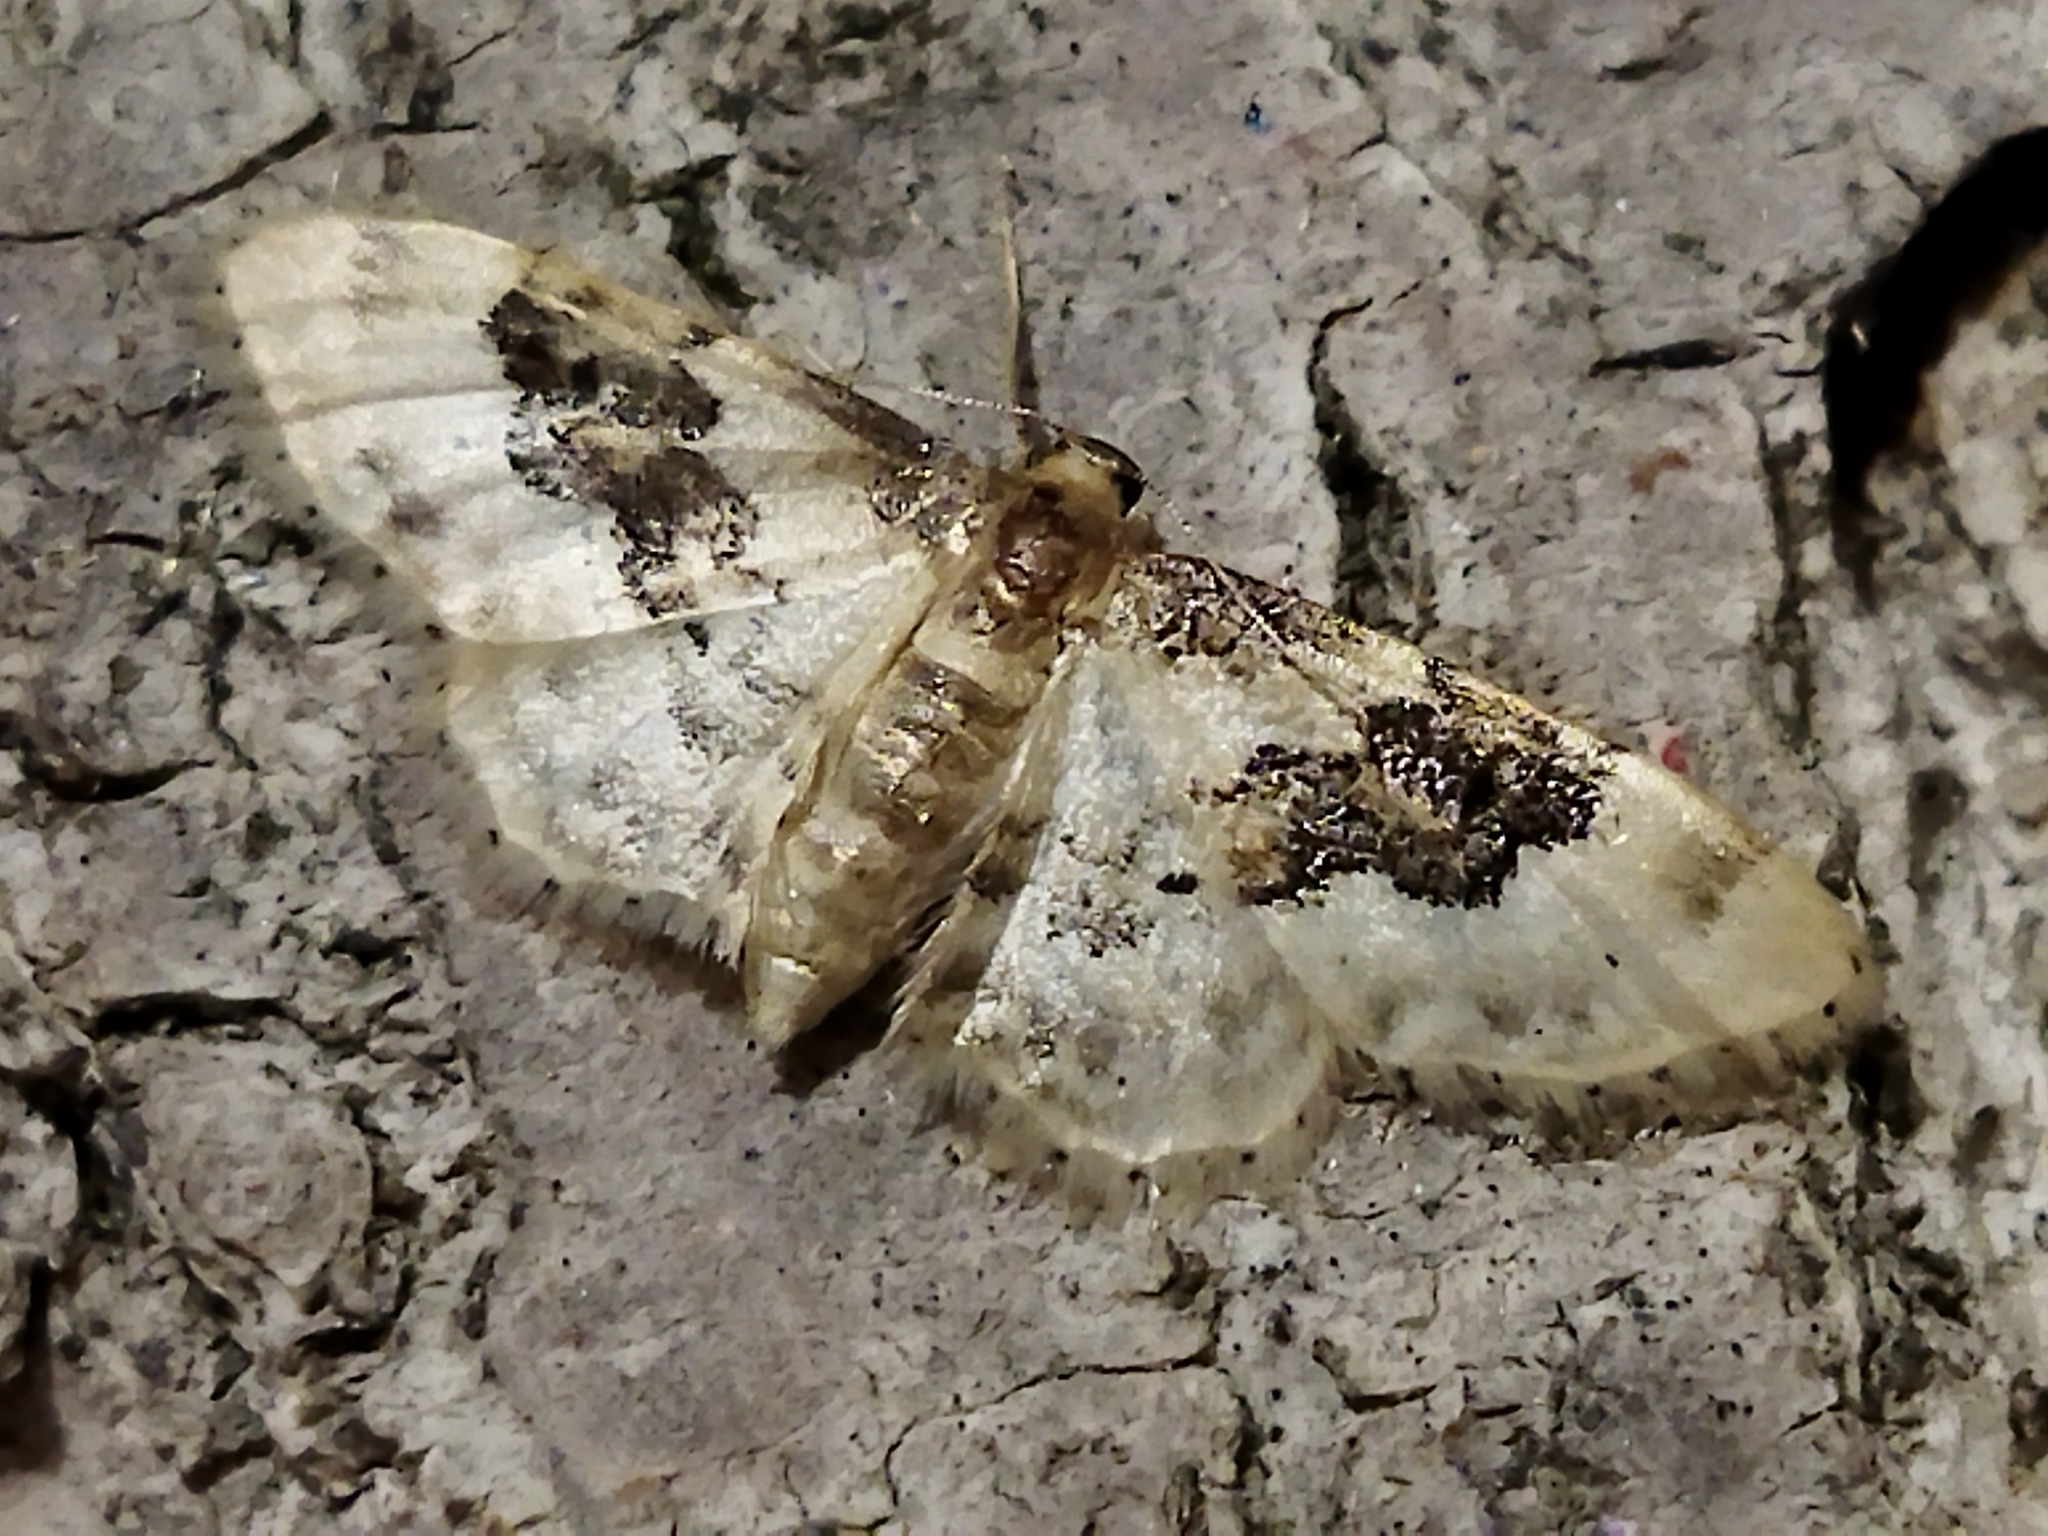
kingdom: Animalia
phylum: Arthropoda
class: Insecta
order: Lepidoptera
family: Geometridae
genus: Idaea
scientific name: Idaea rusticata
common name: Least carpet
